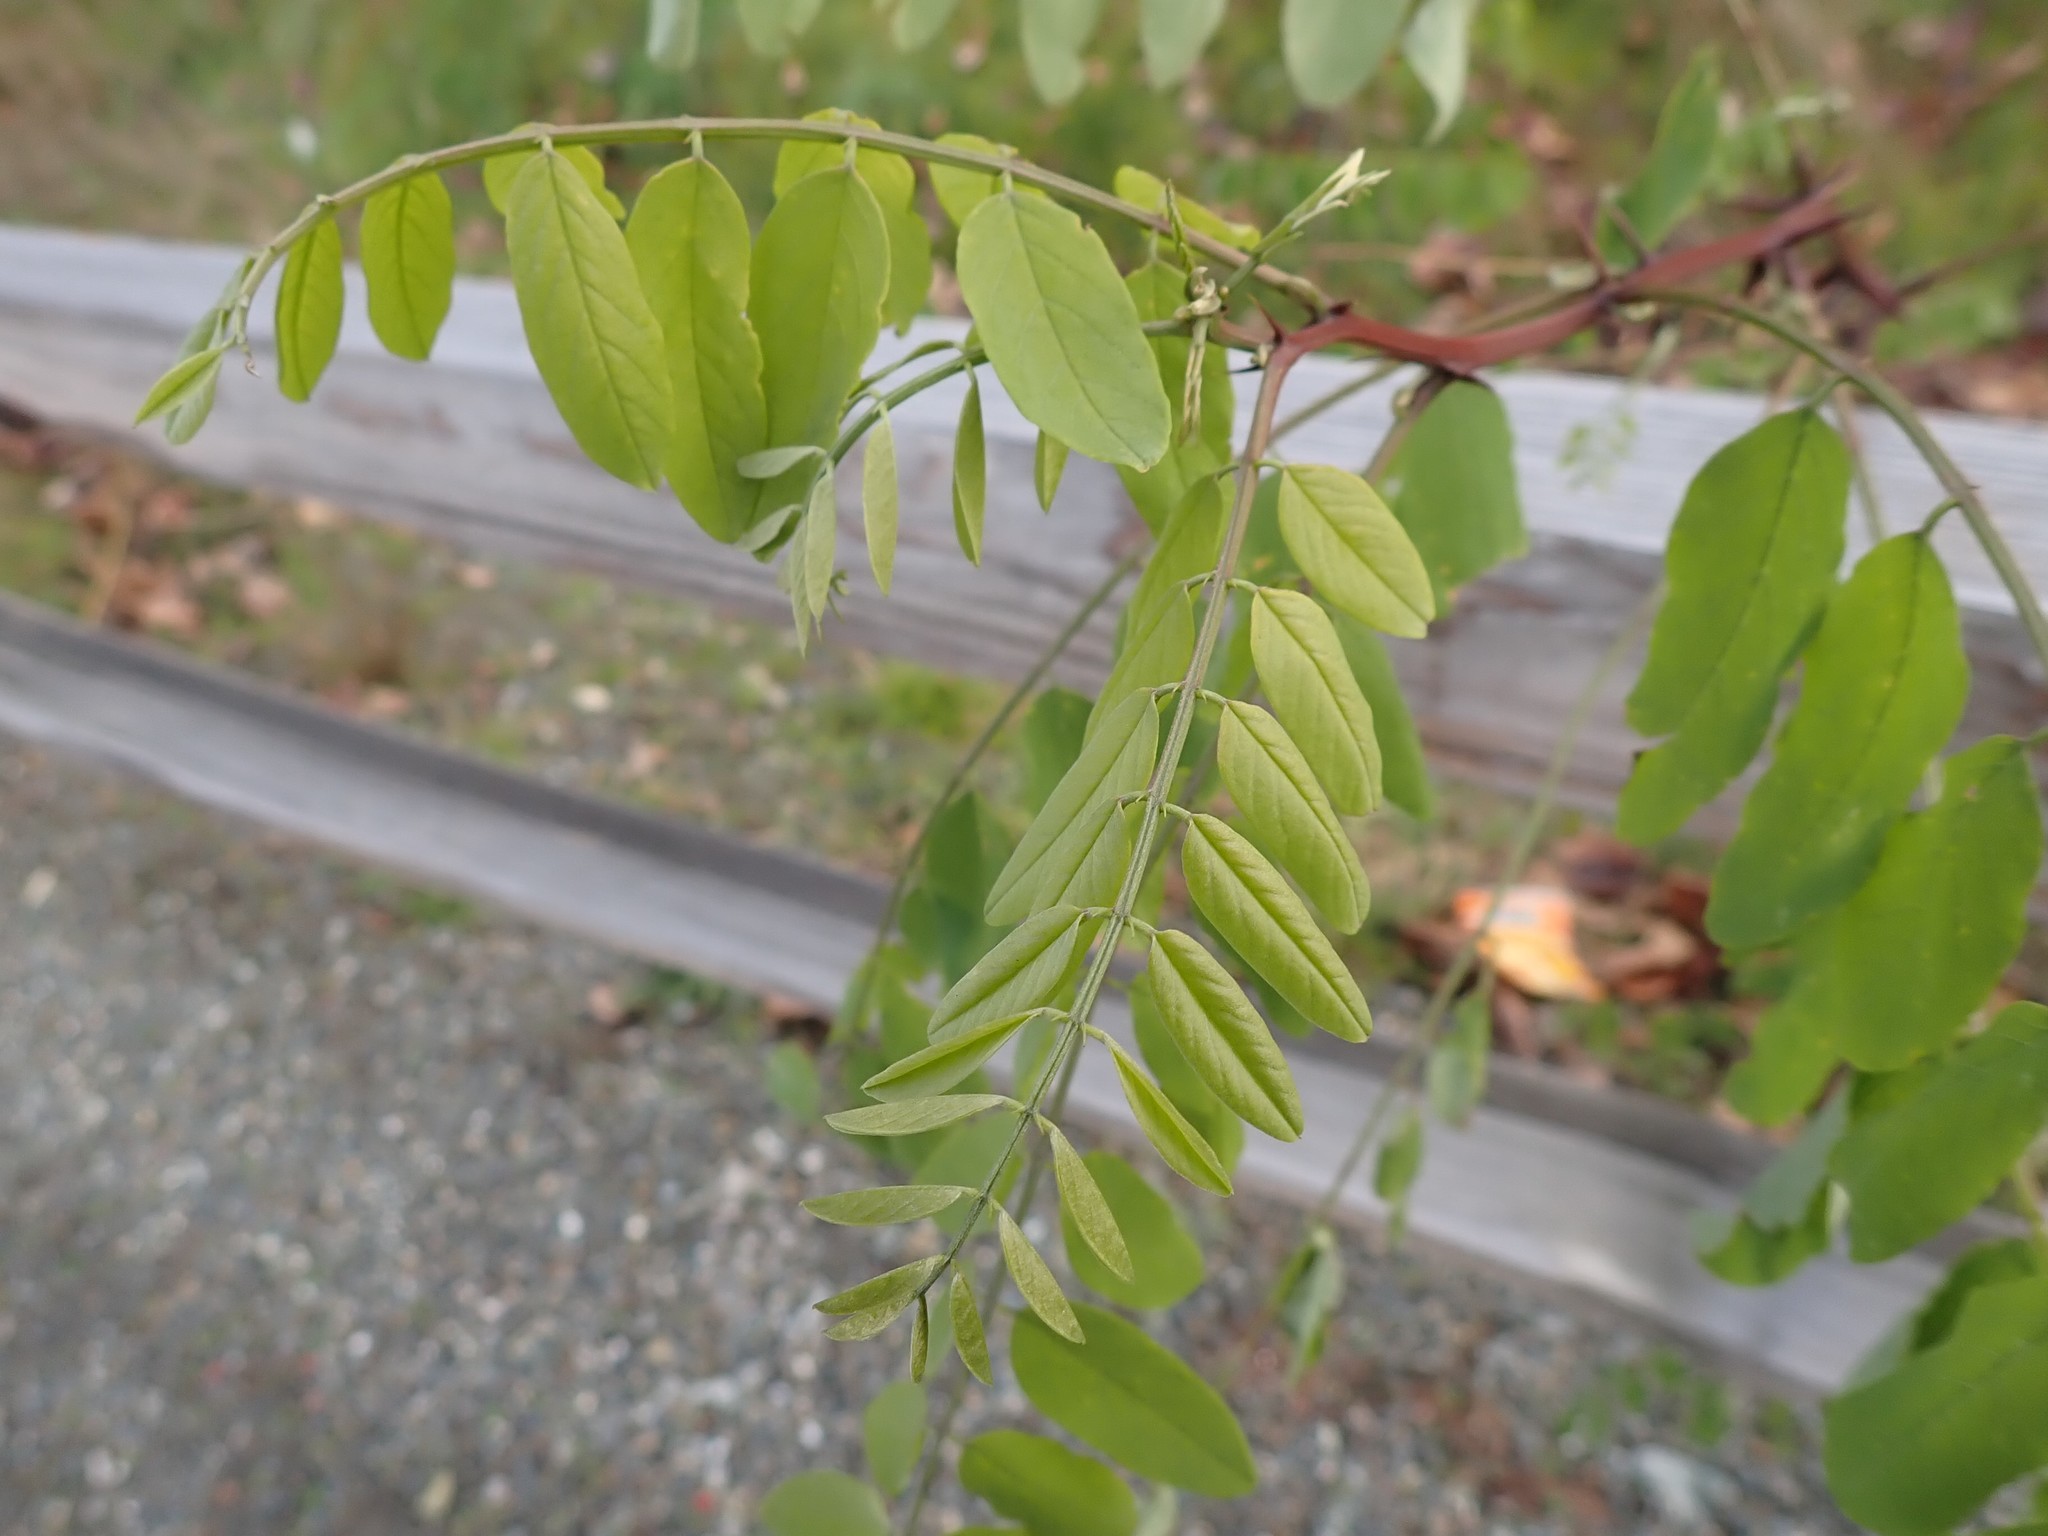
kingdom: Plantae
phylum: Tracheophyta
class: Magnoliopsida
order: Fabales
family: Fabaceae
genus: Robinia
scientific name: Robinia pseudoacacia
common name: Black locust
